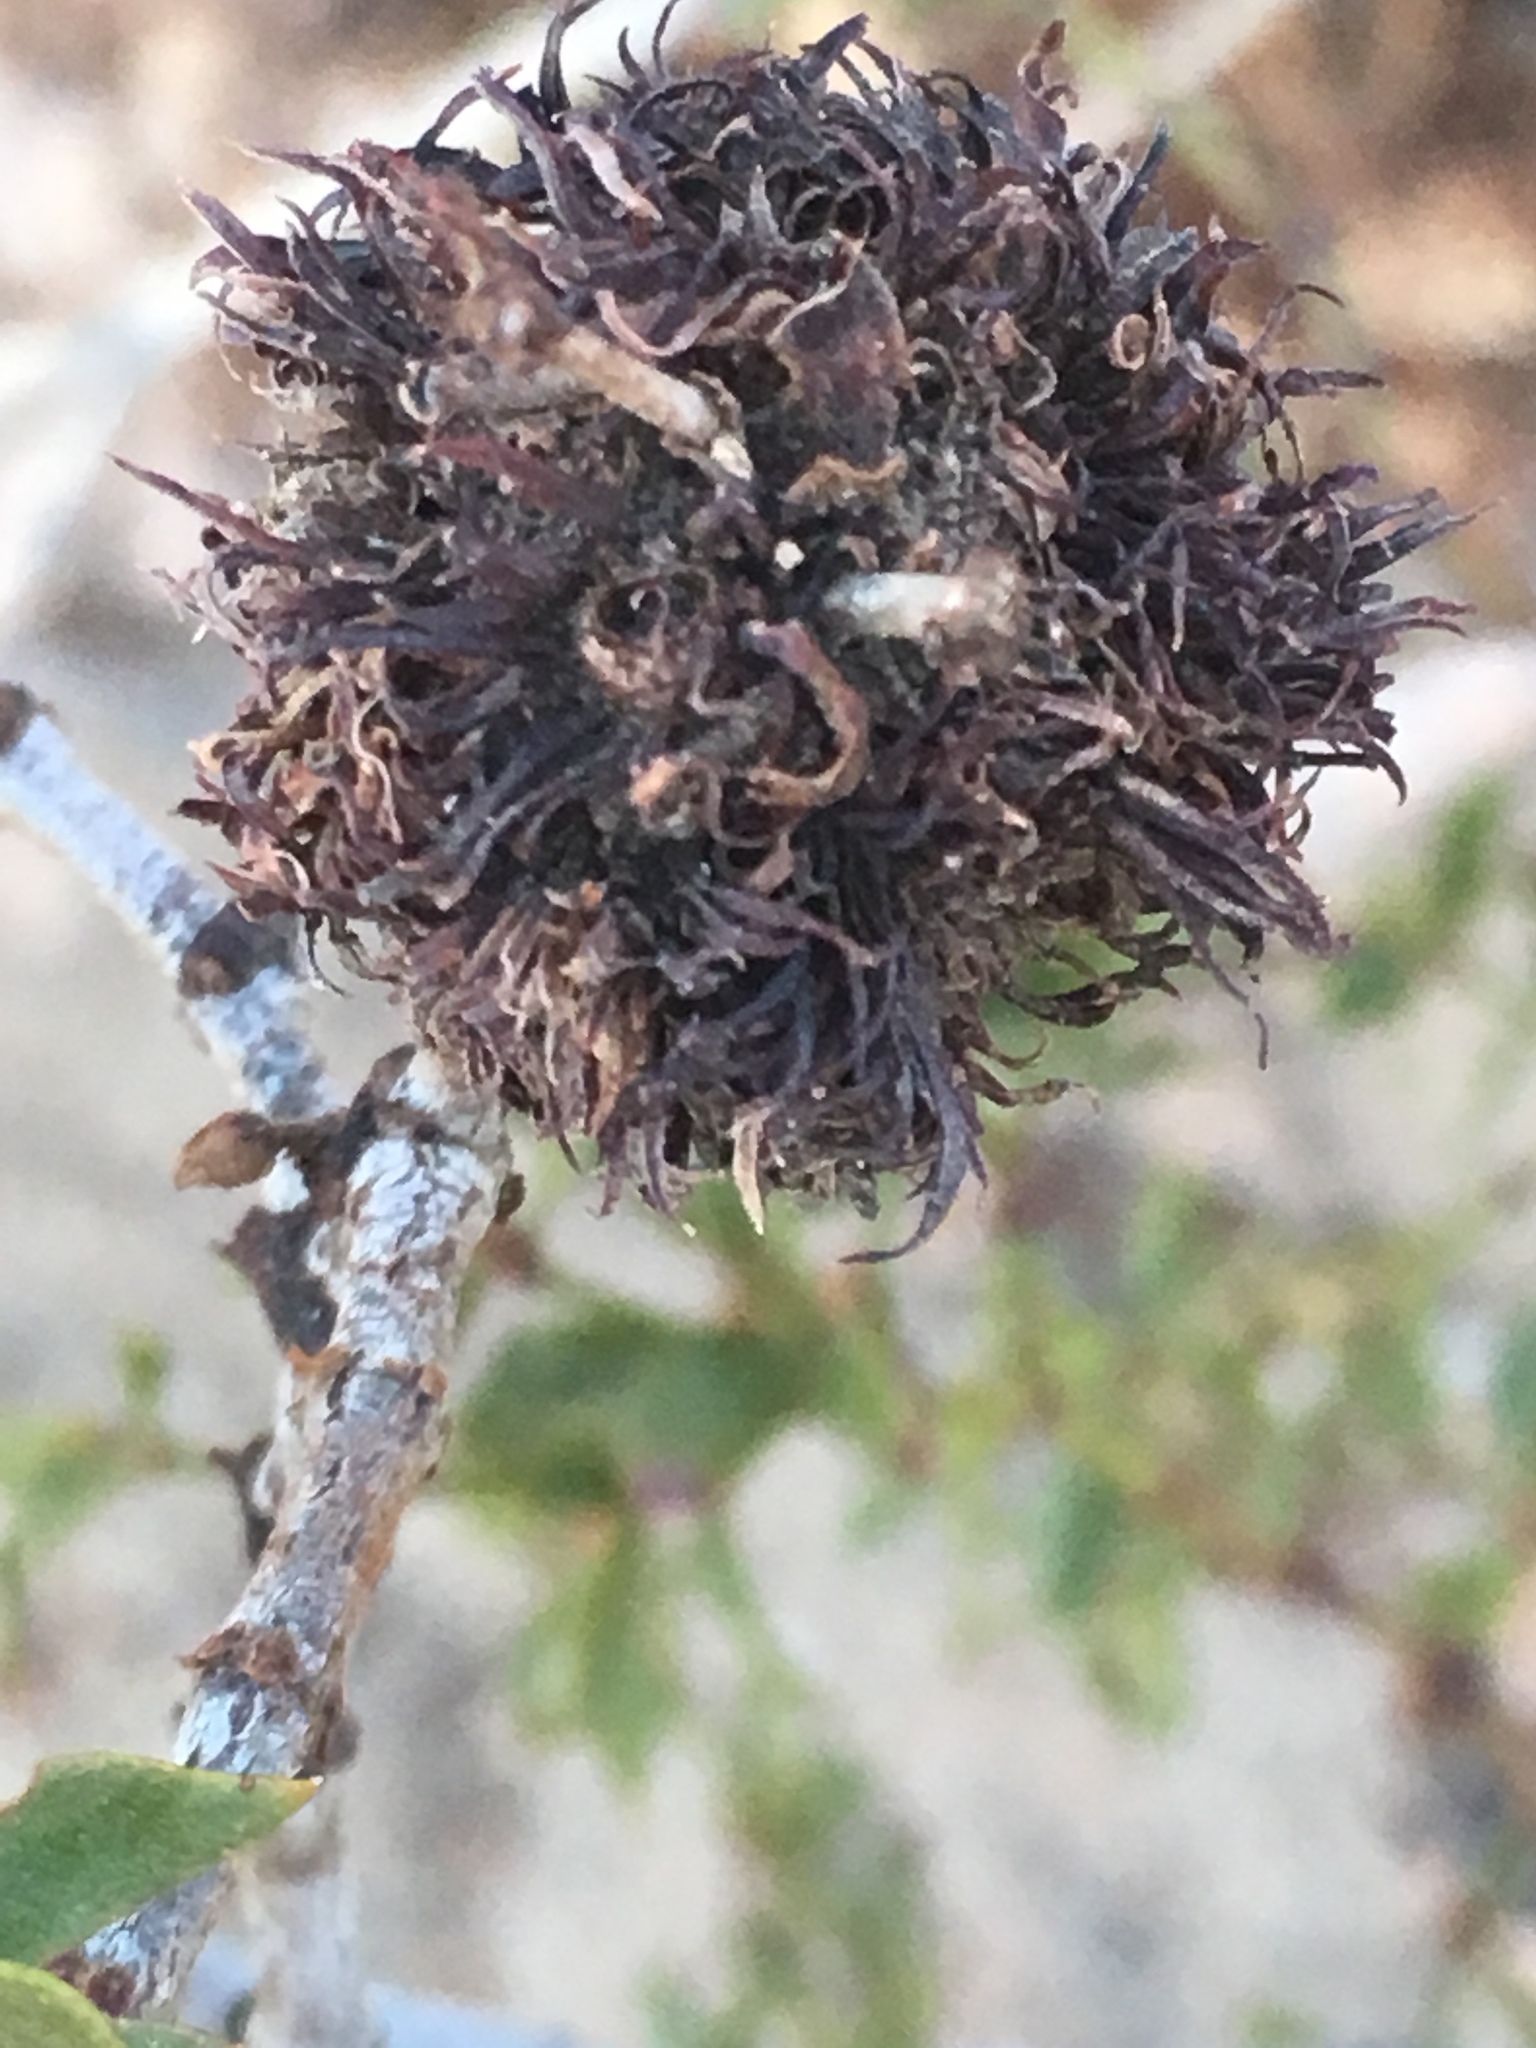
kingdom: Animalia
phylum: Arthropoda
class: Insecta
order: Diptera
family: Cecidomyiidae
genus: Asphondylia
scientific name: Asphondylia auripila
